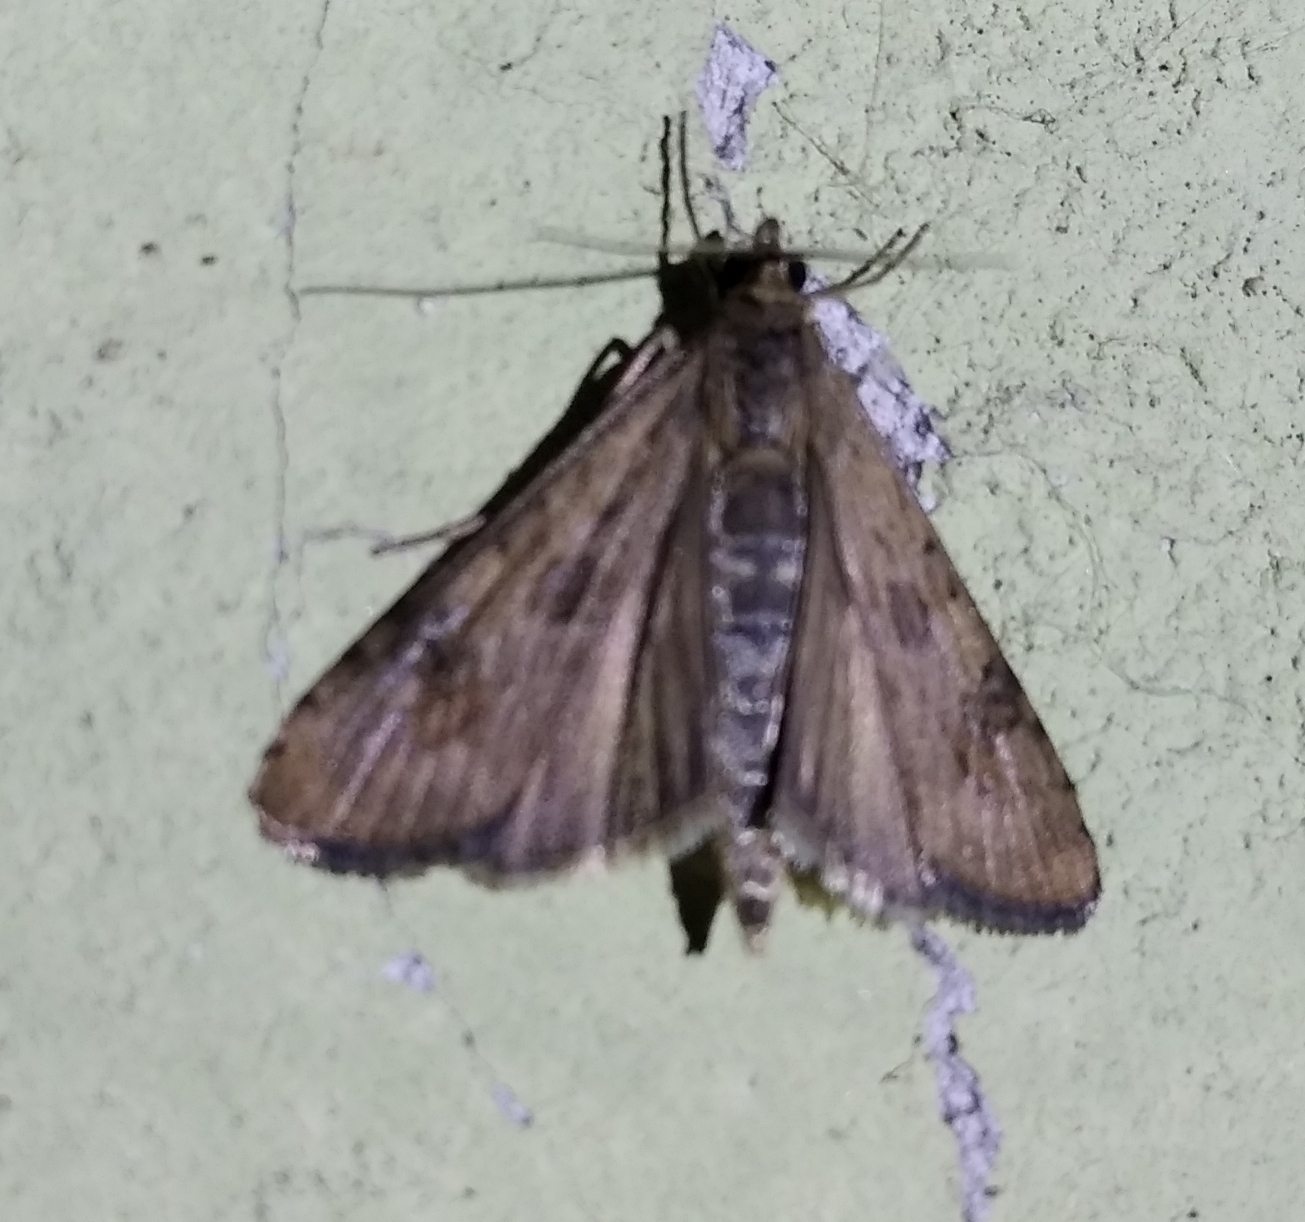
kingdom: Animalia
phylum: Arthropoda
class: Insecta
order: Lepidoptera
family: Crambidae
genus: Nomophila
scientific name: Nomophila noctuella
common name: Rush veneer
